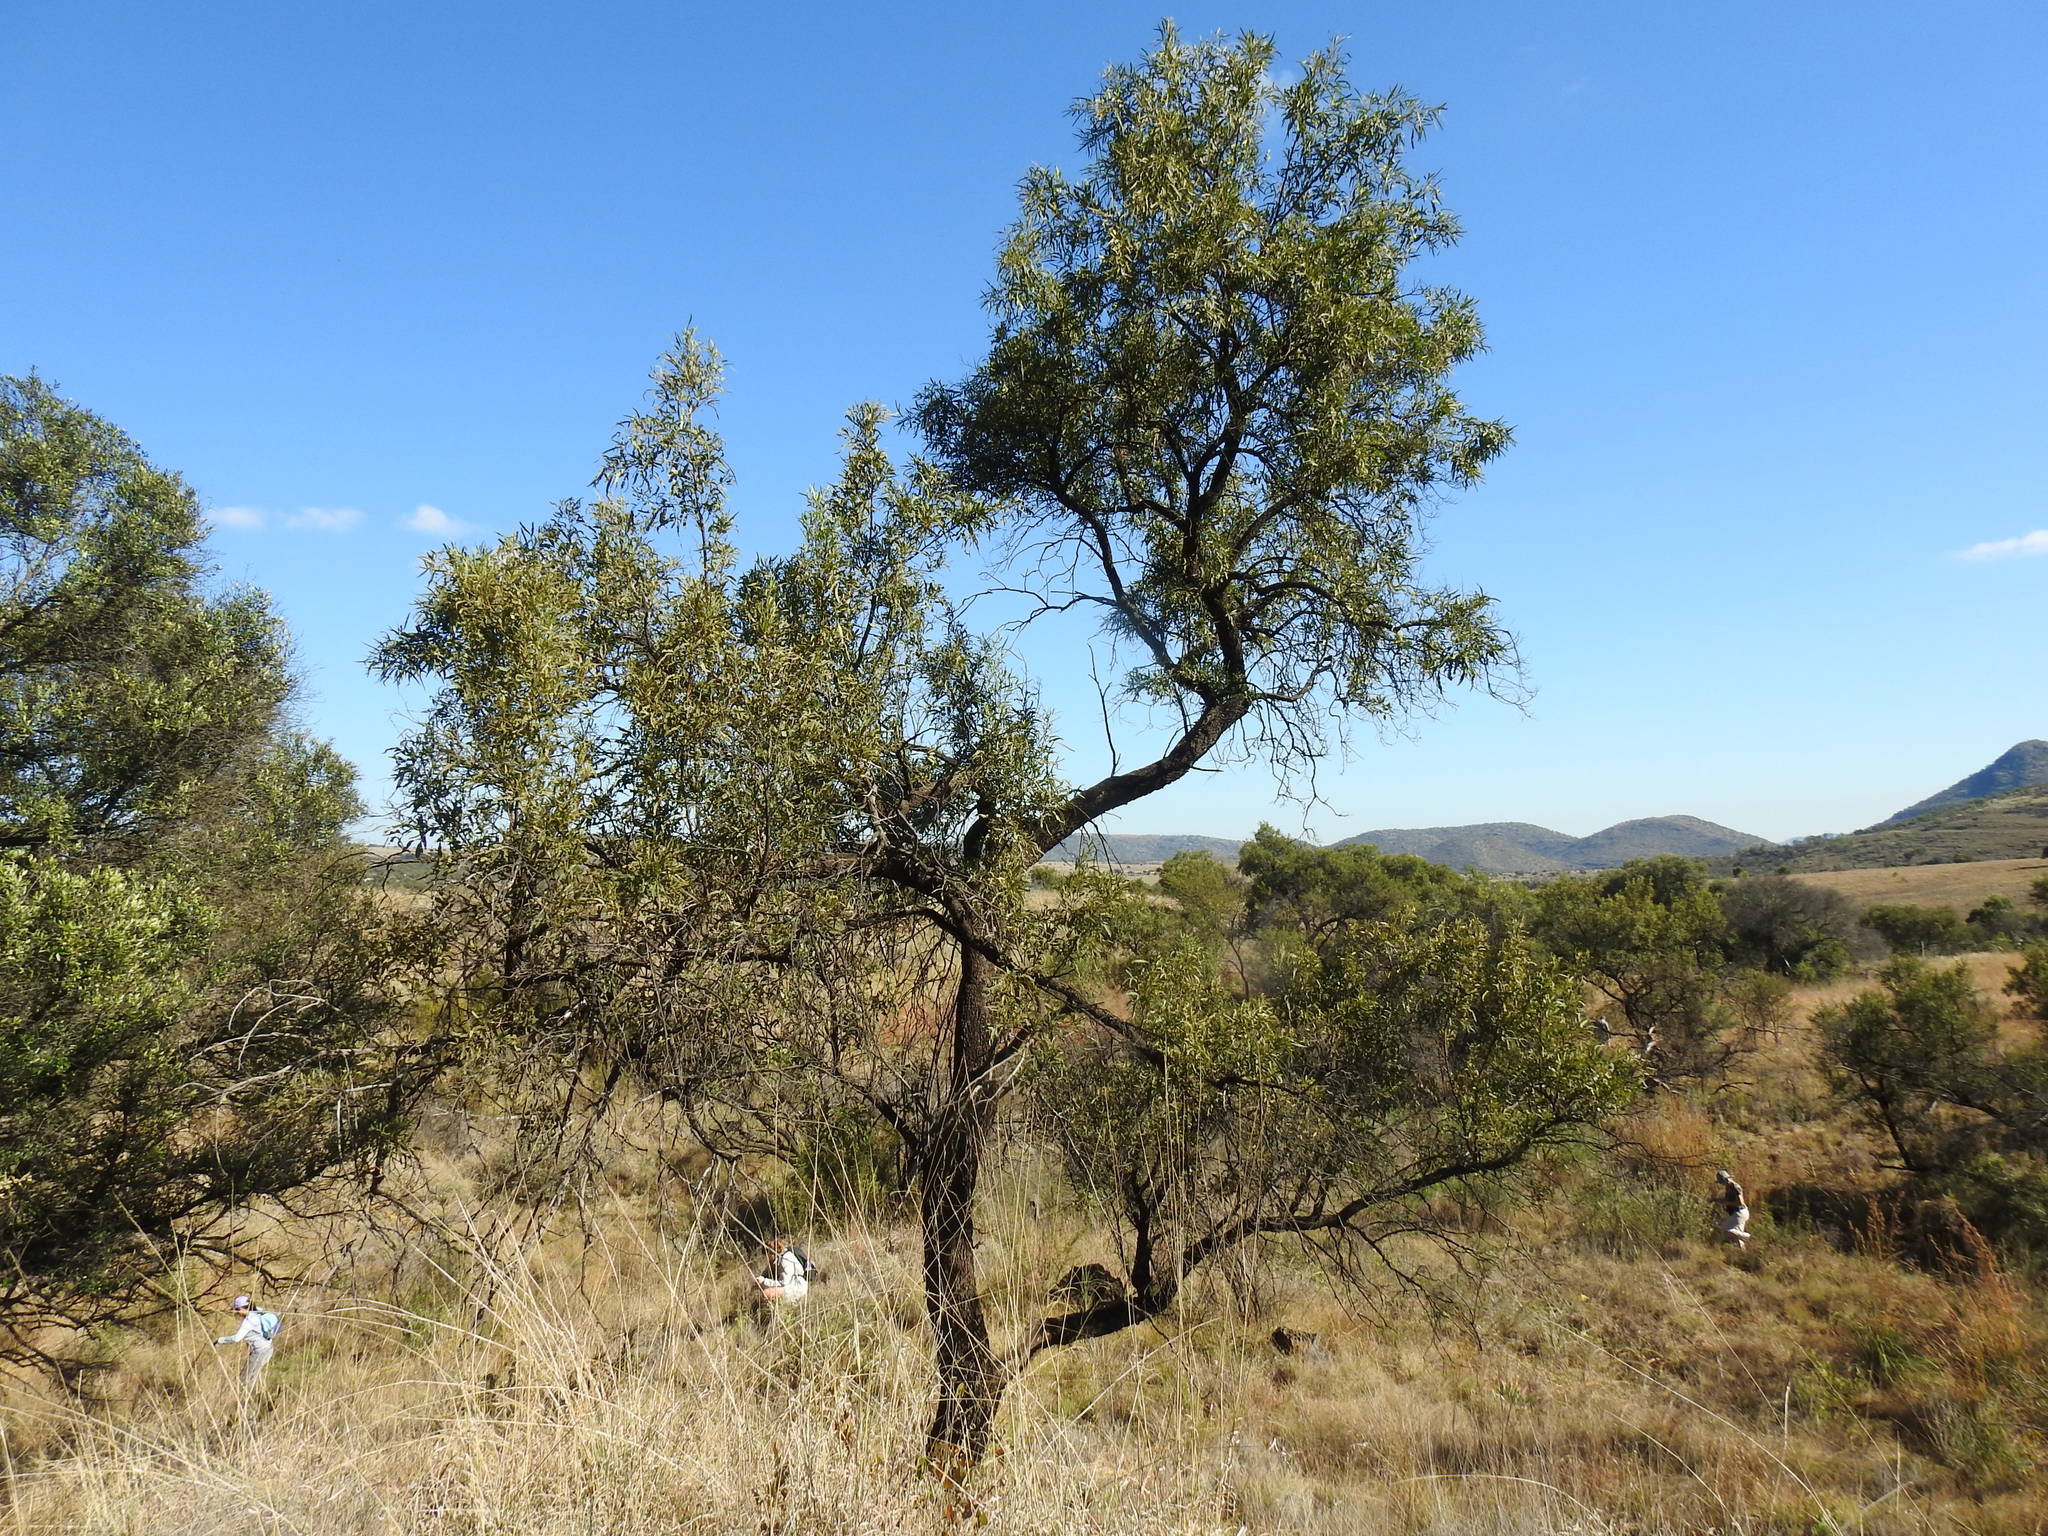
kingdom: Plantae
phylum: Tracheophyta
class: Magnoliopsida
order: Sapindales
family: Anacardiaceae
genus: Searsia
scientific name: Searsia lancea
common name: Cashew
